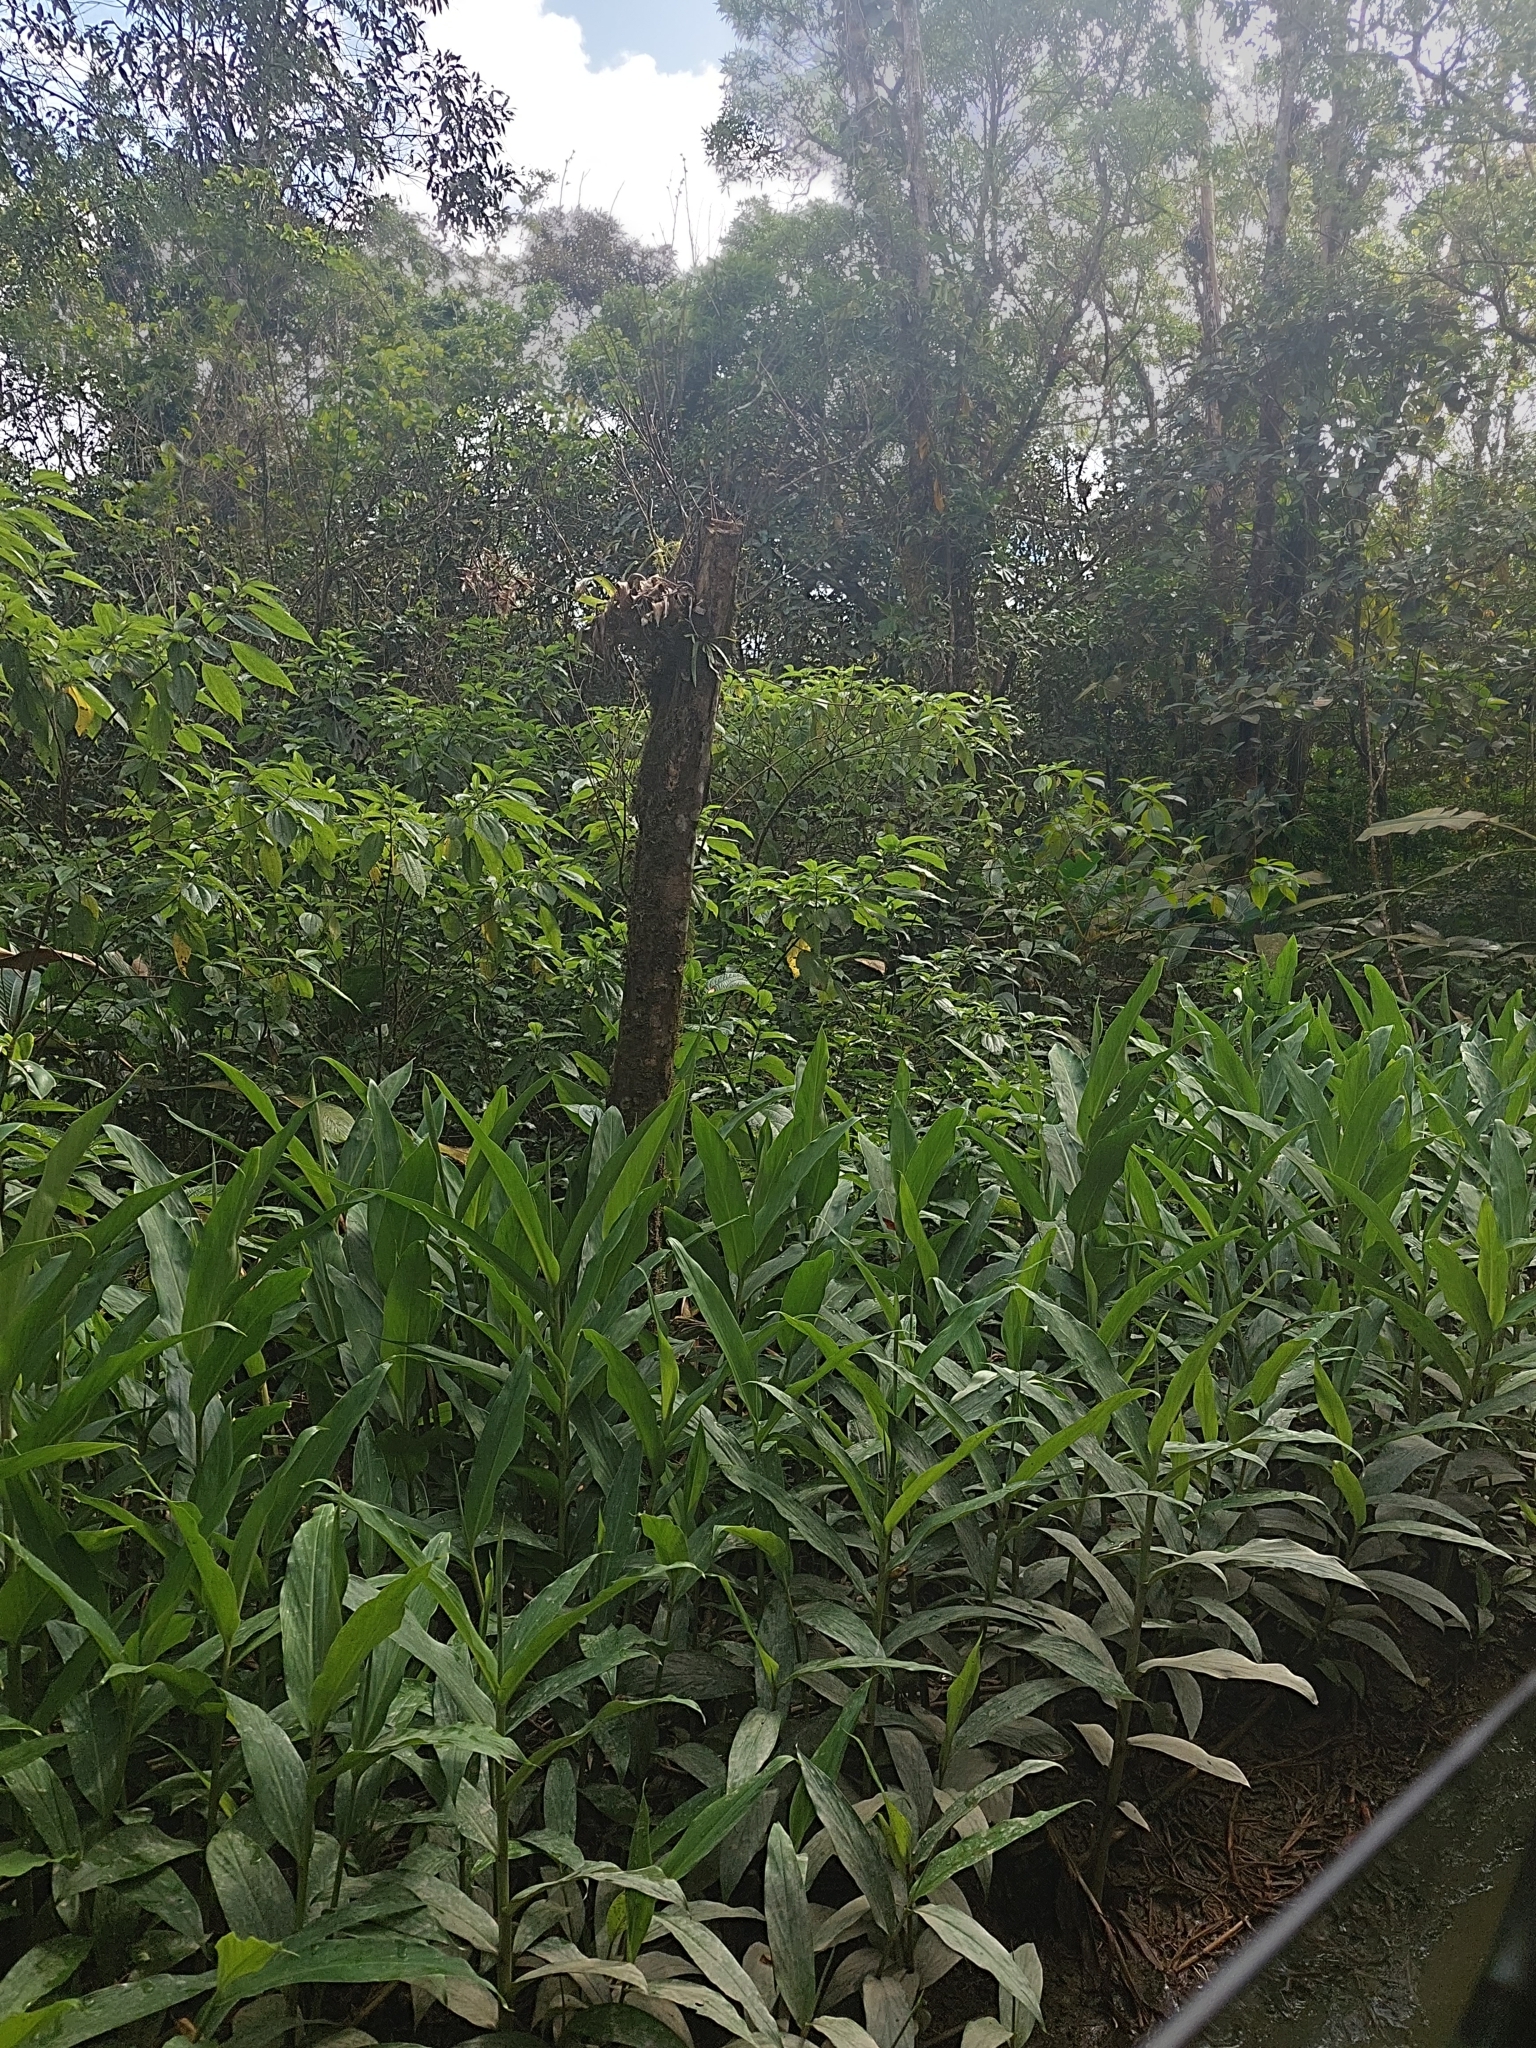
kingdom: Plantae
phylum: Tracheophyta
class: Liliopsida
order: Zingiberales
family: Zingiberaceae
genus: Hedychium
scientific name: Hedychium coronarium
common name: White garland-lily
